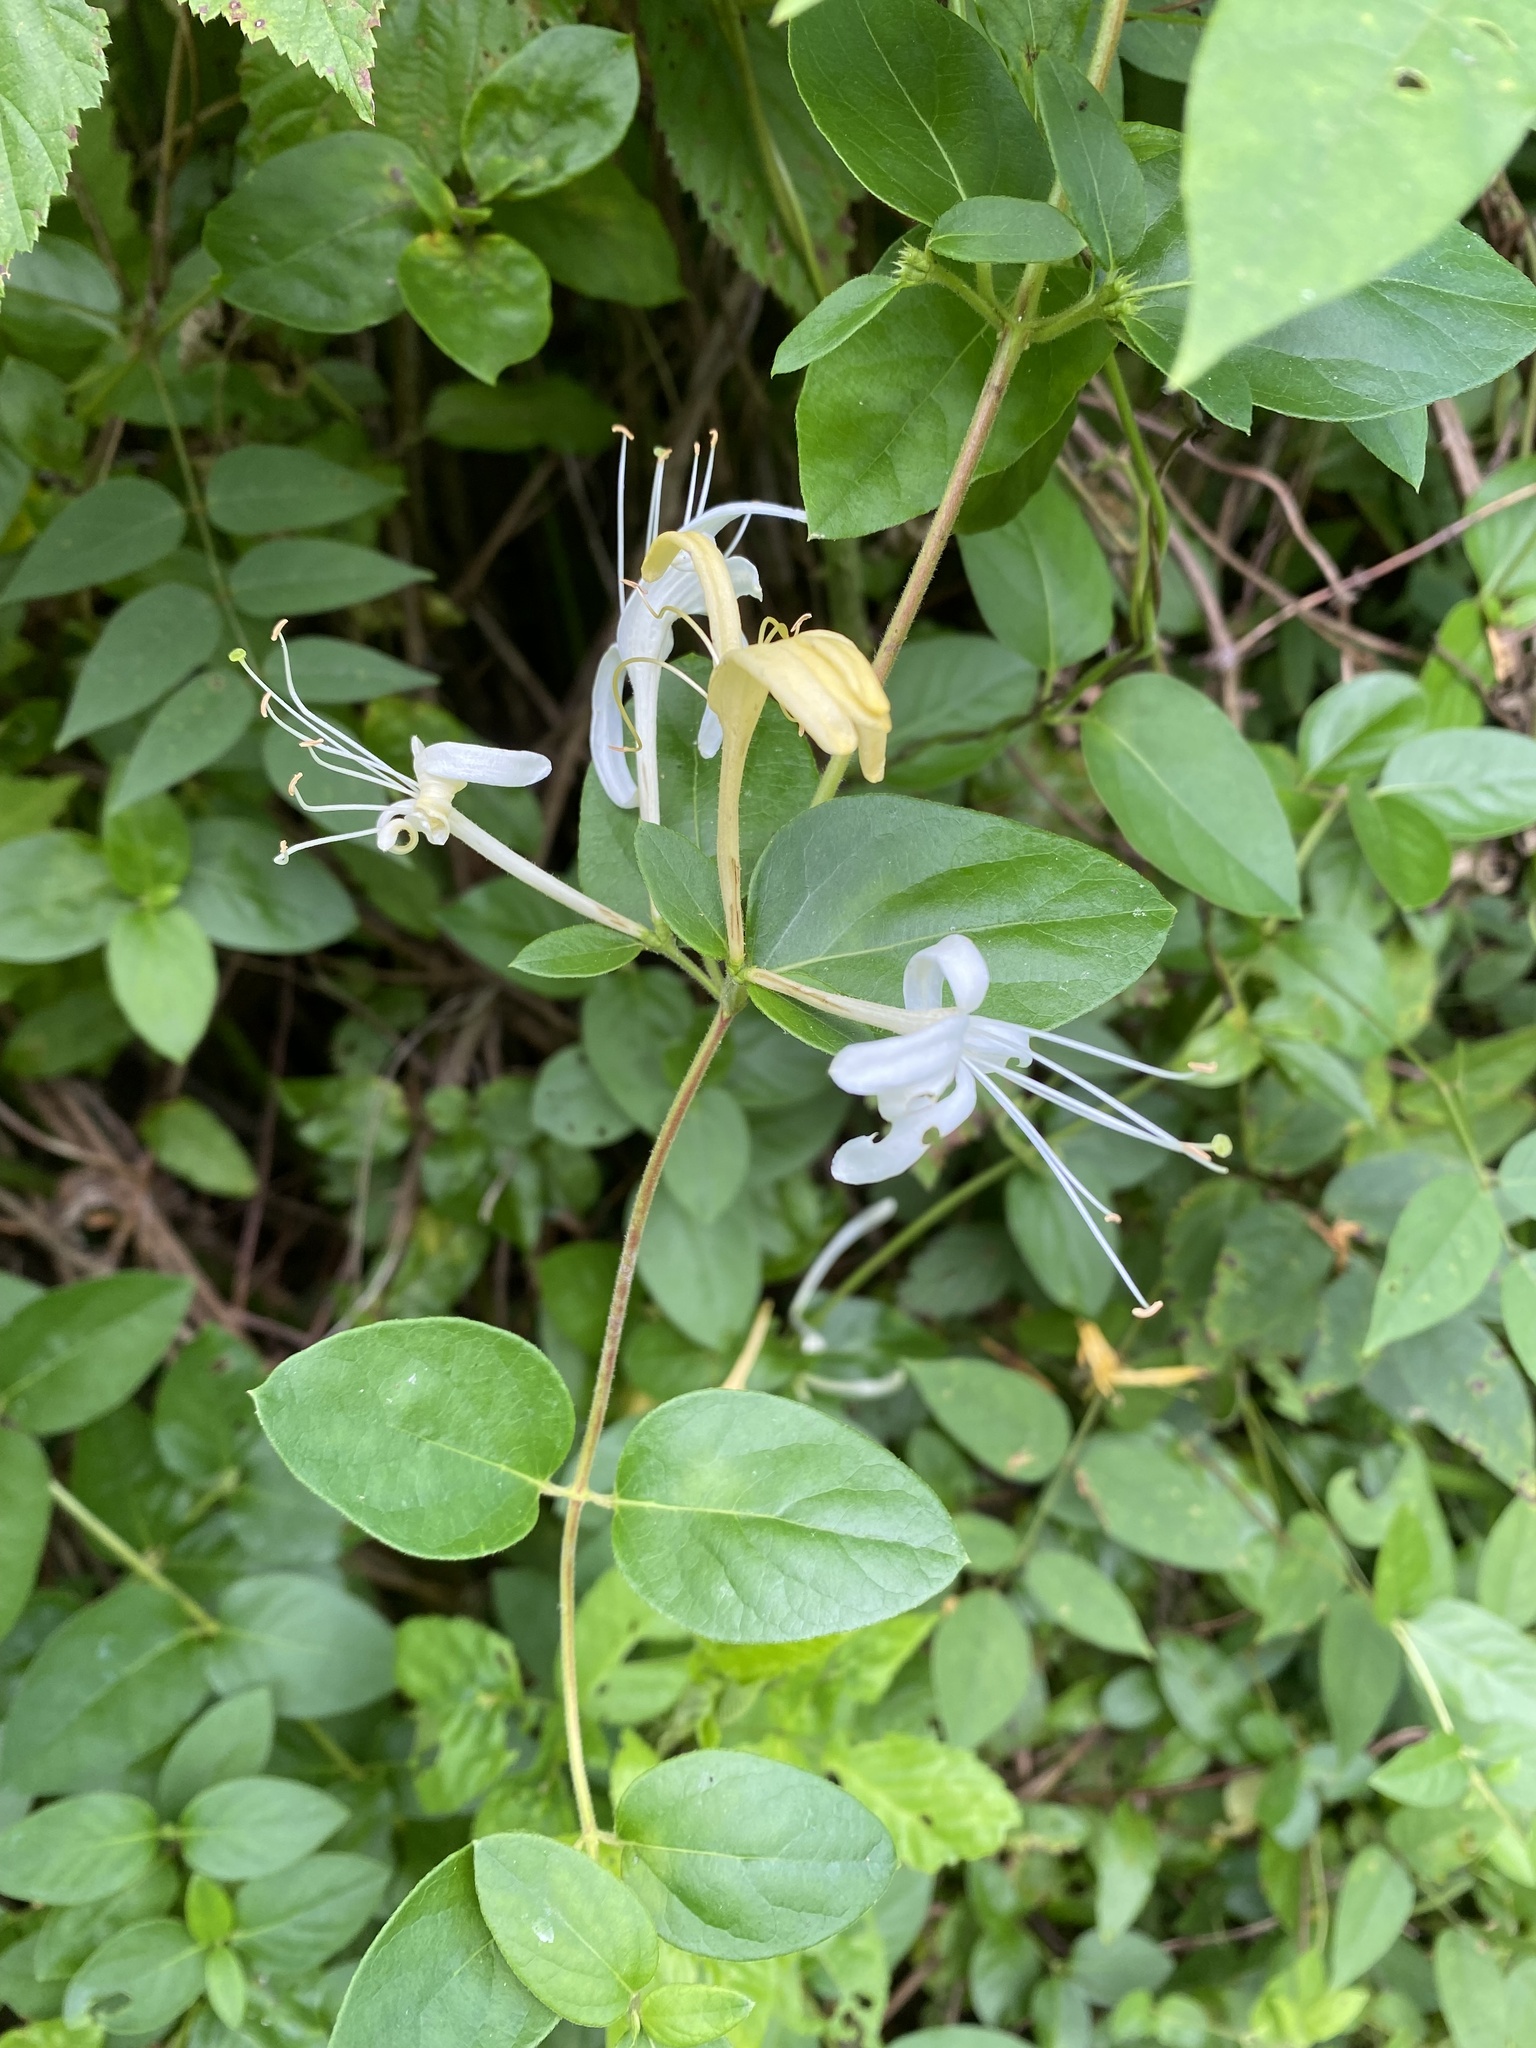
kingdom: Plantae
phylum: Tracheophyta
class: Magnoliopsida
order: Dipsacales
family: Caprifoliaceae
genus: Lonicera
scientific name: Lonicera japonica
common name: Japanese honeysuckle
